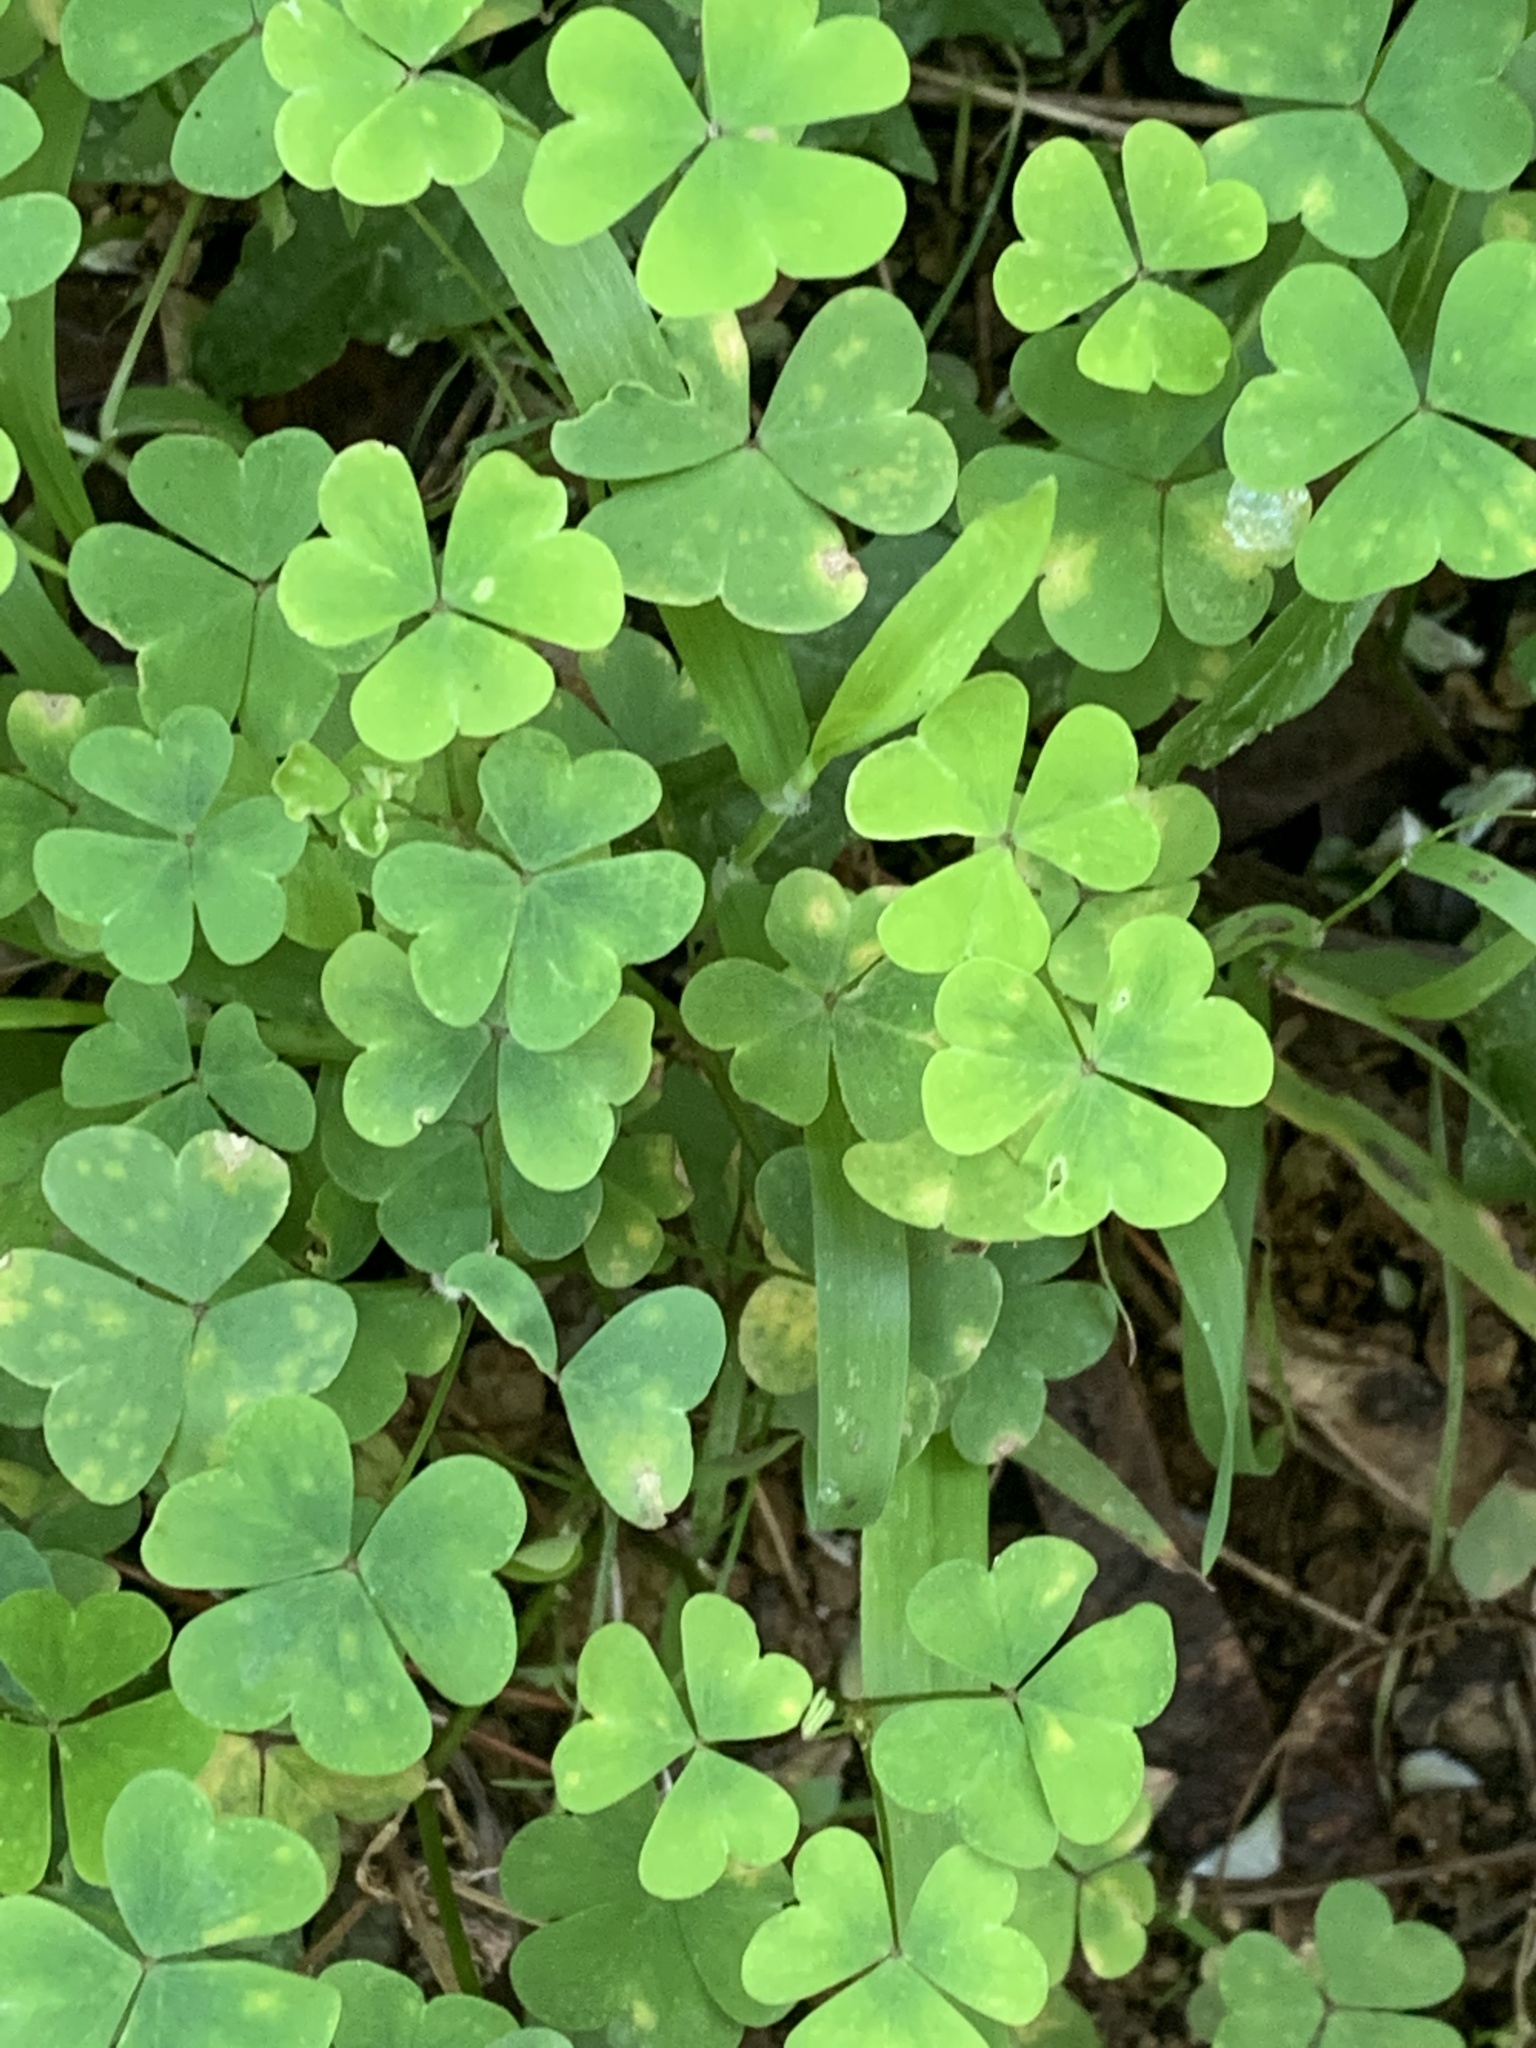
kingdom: Plantae
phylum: Tracheophyta
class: Magnoliopsida
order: Oxalidales
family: Oxalidaceae
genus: Oxalis
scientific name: Oxalis incarnata
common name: Pale pink-sorrel
